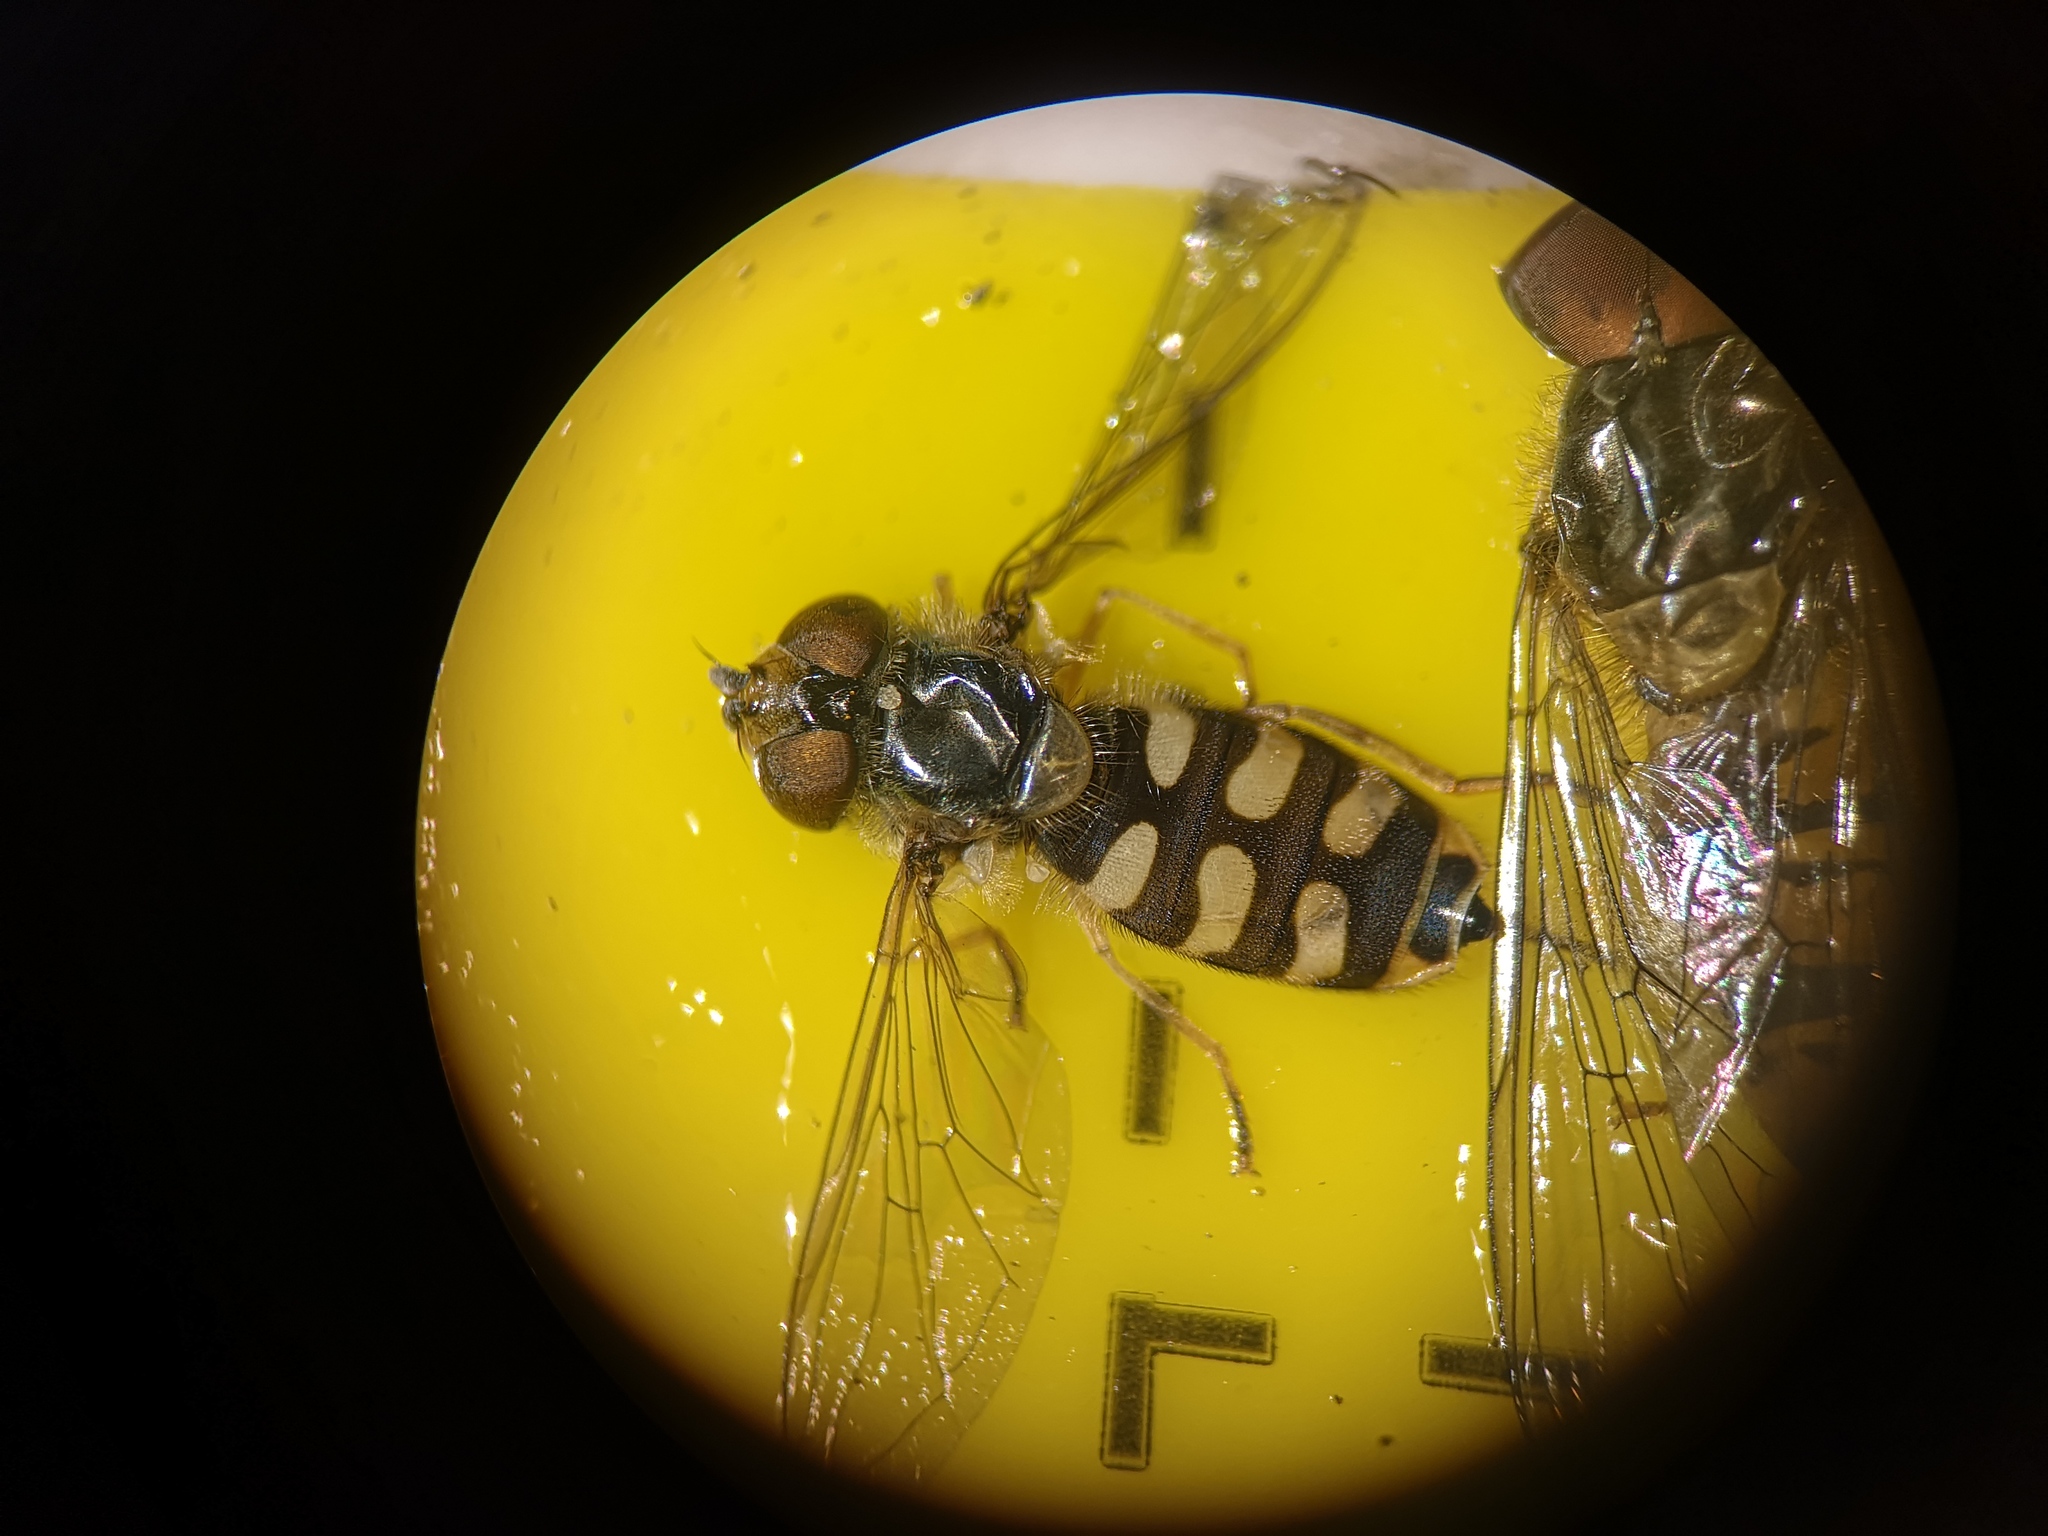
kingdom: Animalia
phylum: Arthropoda
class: Insecta
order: Diptera
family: Syrphidae
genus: Eupeodes
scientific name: Eupeodes corollae
